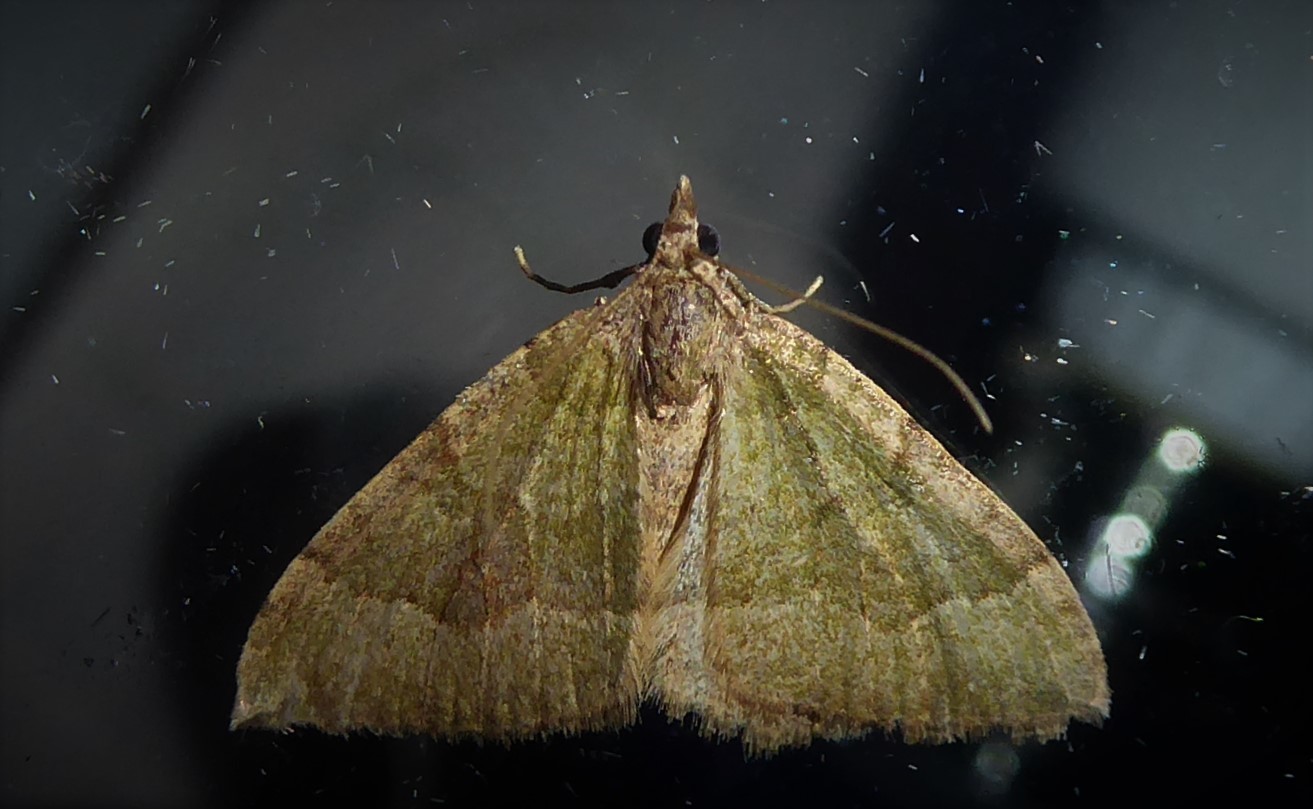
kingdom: Animalia
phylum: Arthropoda
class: Insecta
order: Lepidoptera
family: Geometridae
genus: Epyaxa
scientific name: Epyaxa rosearia
